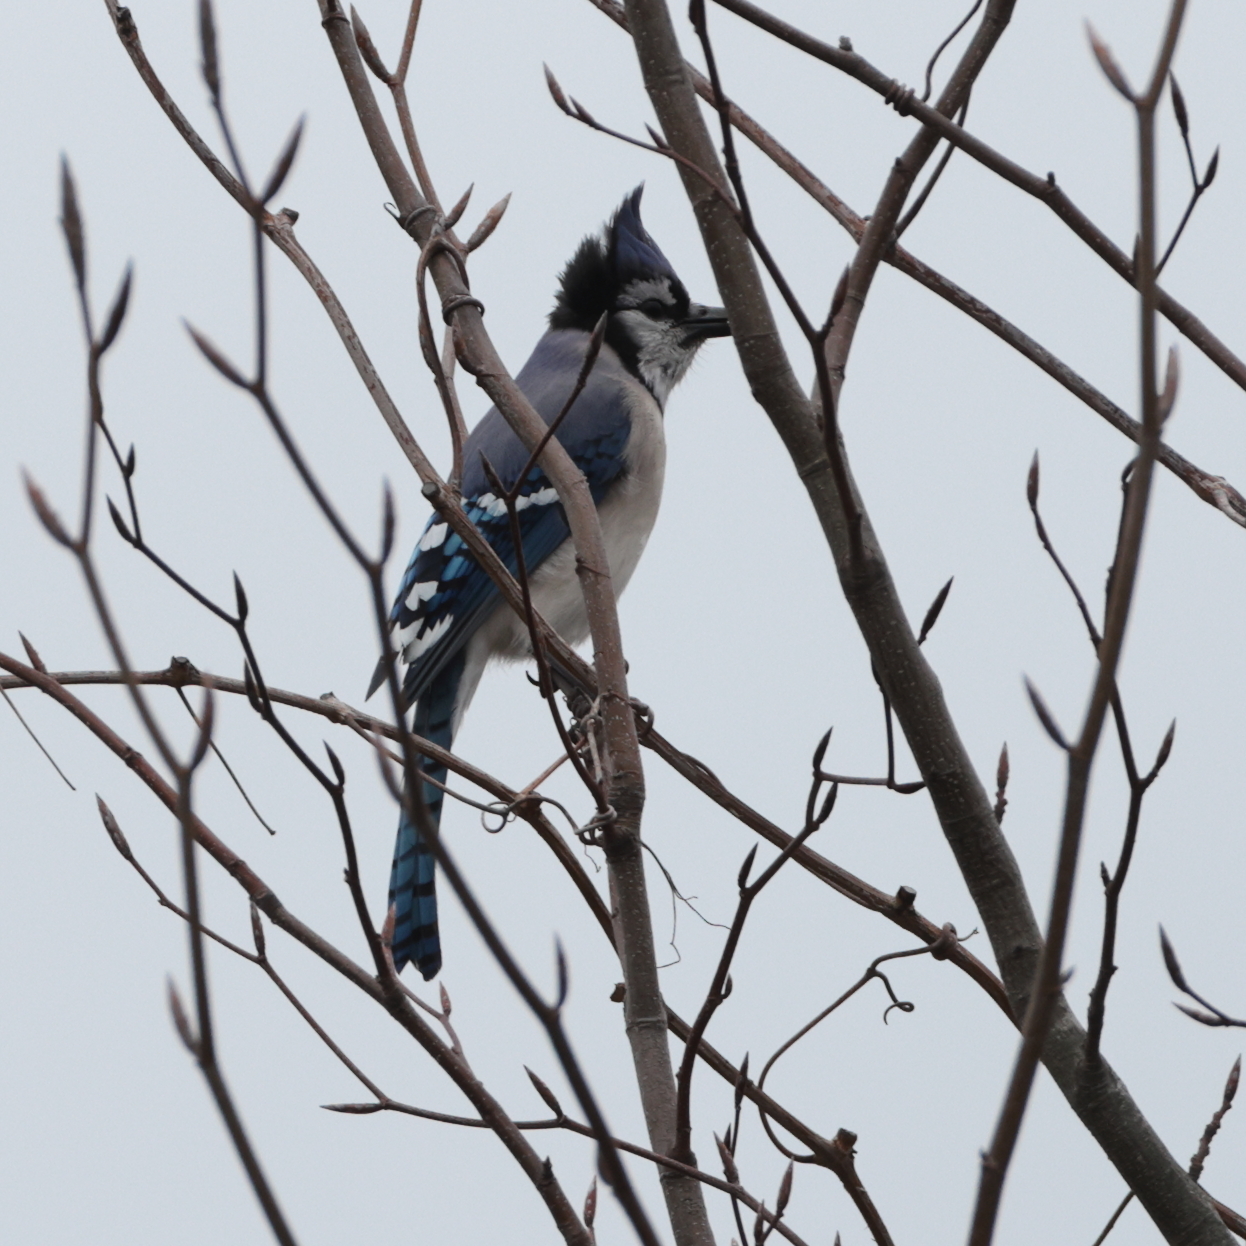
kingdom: Animalia
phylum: Chordata
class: Aves
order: Passeriformes
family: Corvidae
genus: Cyanocitta
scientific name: Cyanocitta cristata
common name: Blue jay
